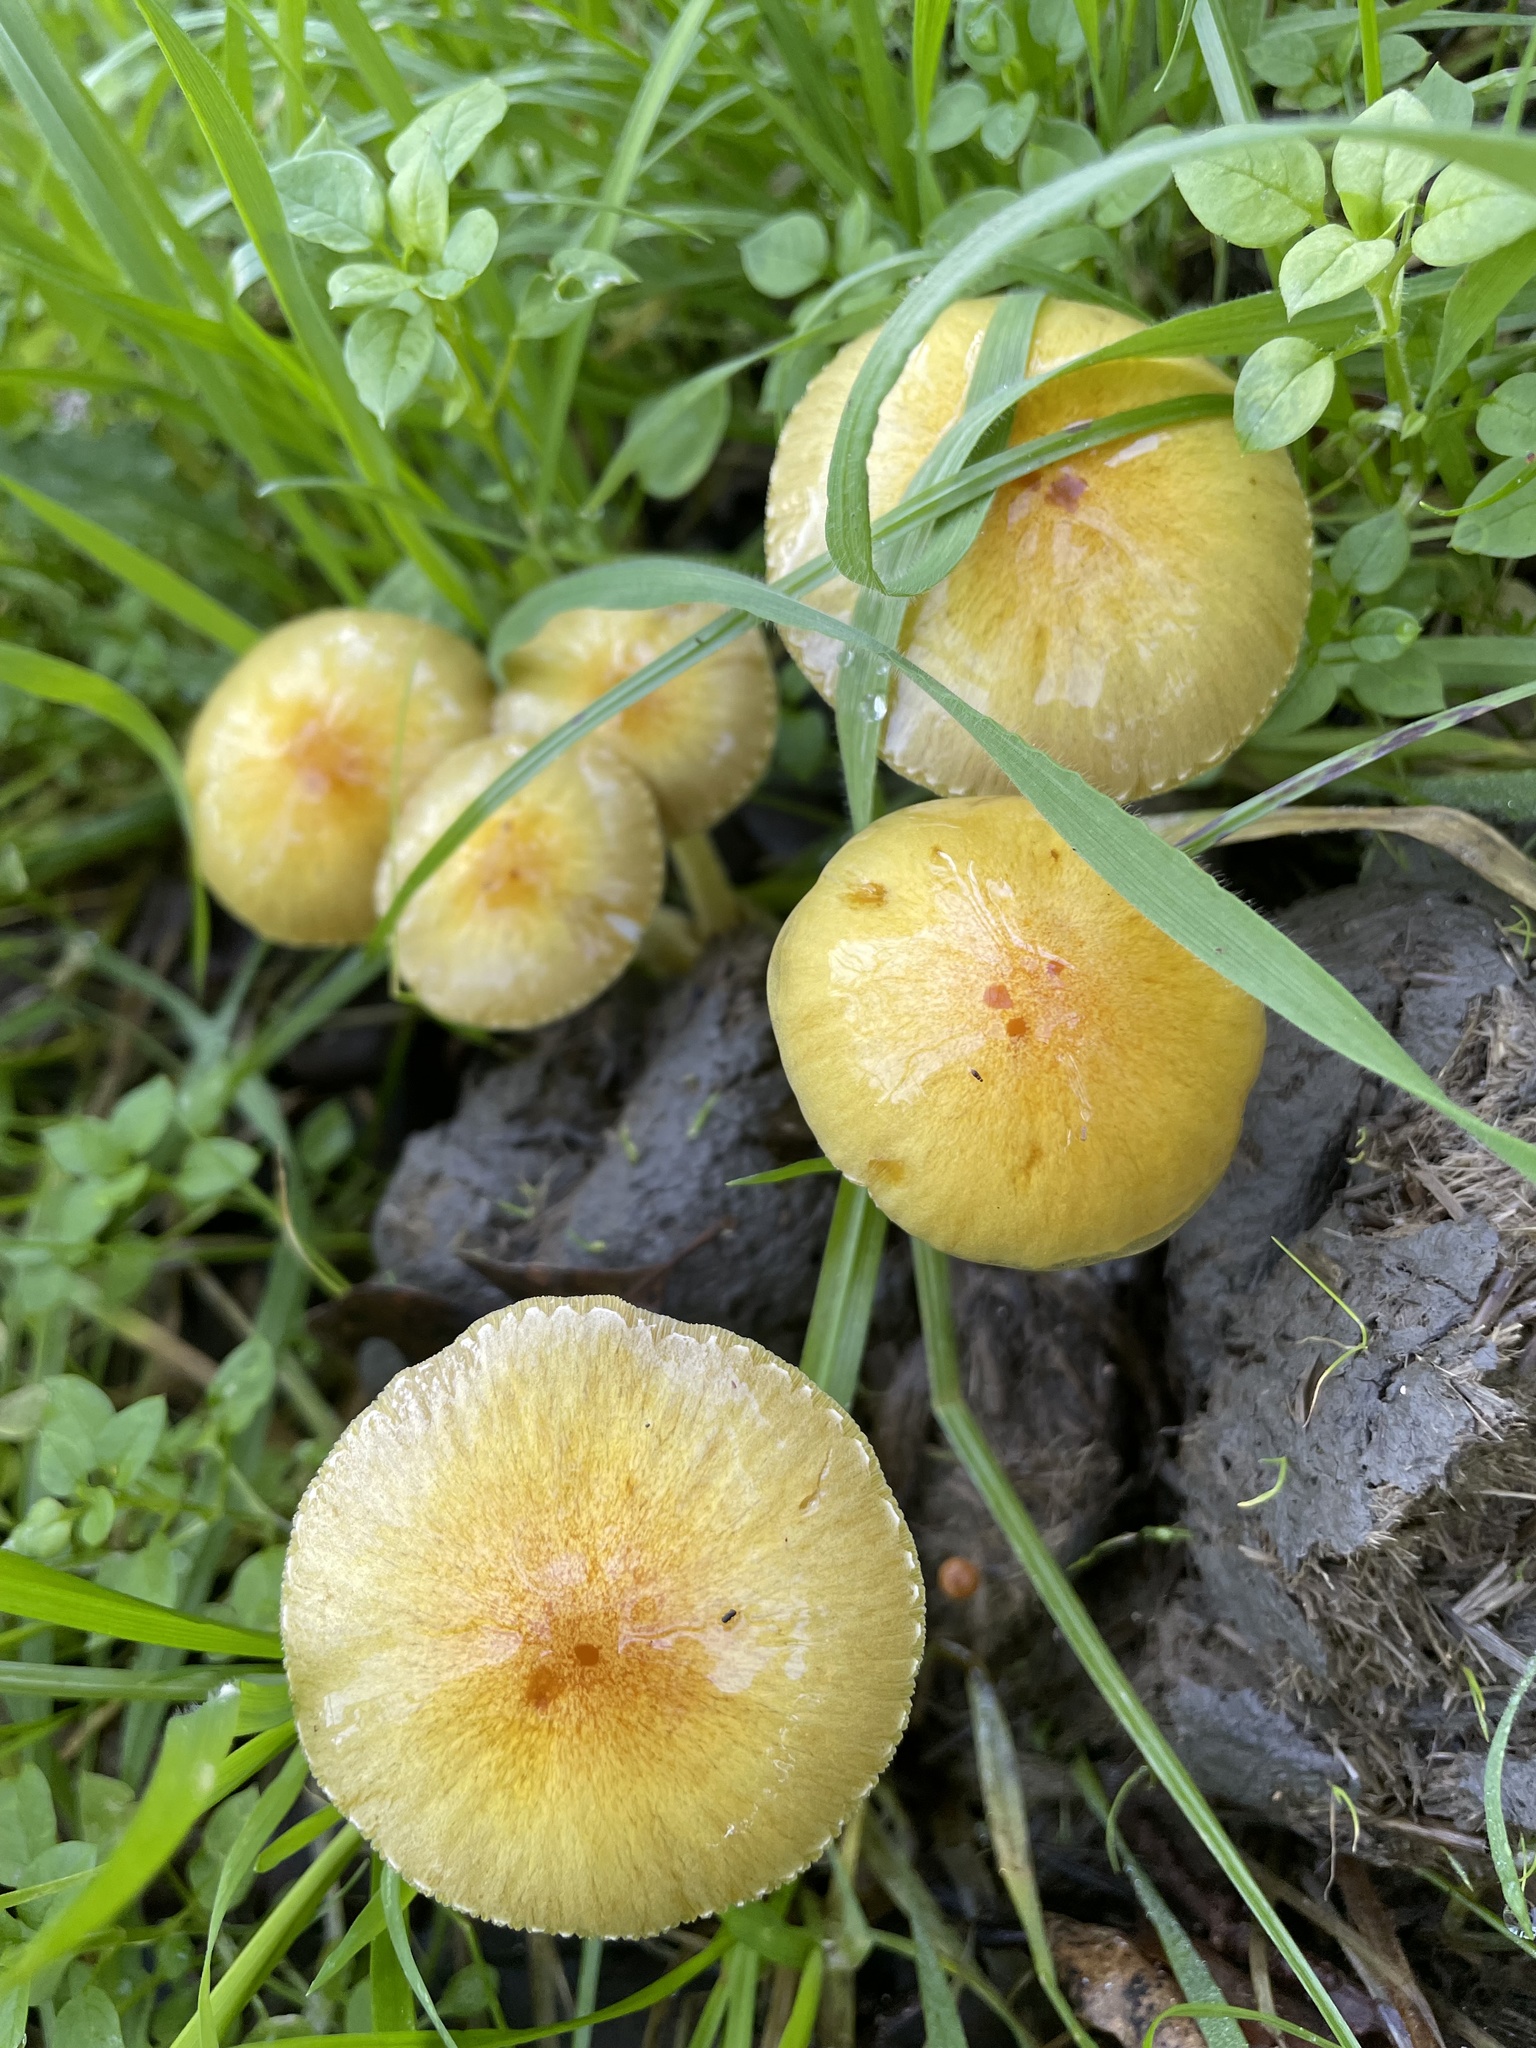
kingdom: Fungi
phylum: Basidiomycota
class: Agaricomycetes
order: Agaricales
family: Bolbitiaceae
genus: Bolbitius
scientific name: Bolbitius titubans
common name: Yellow fieldcap
